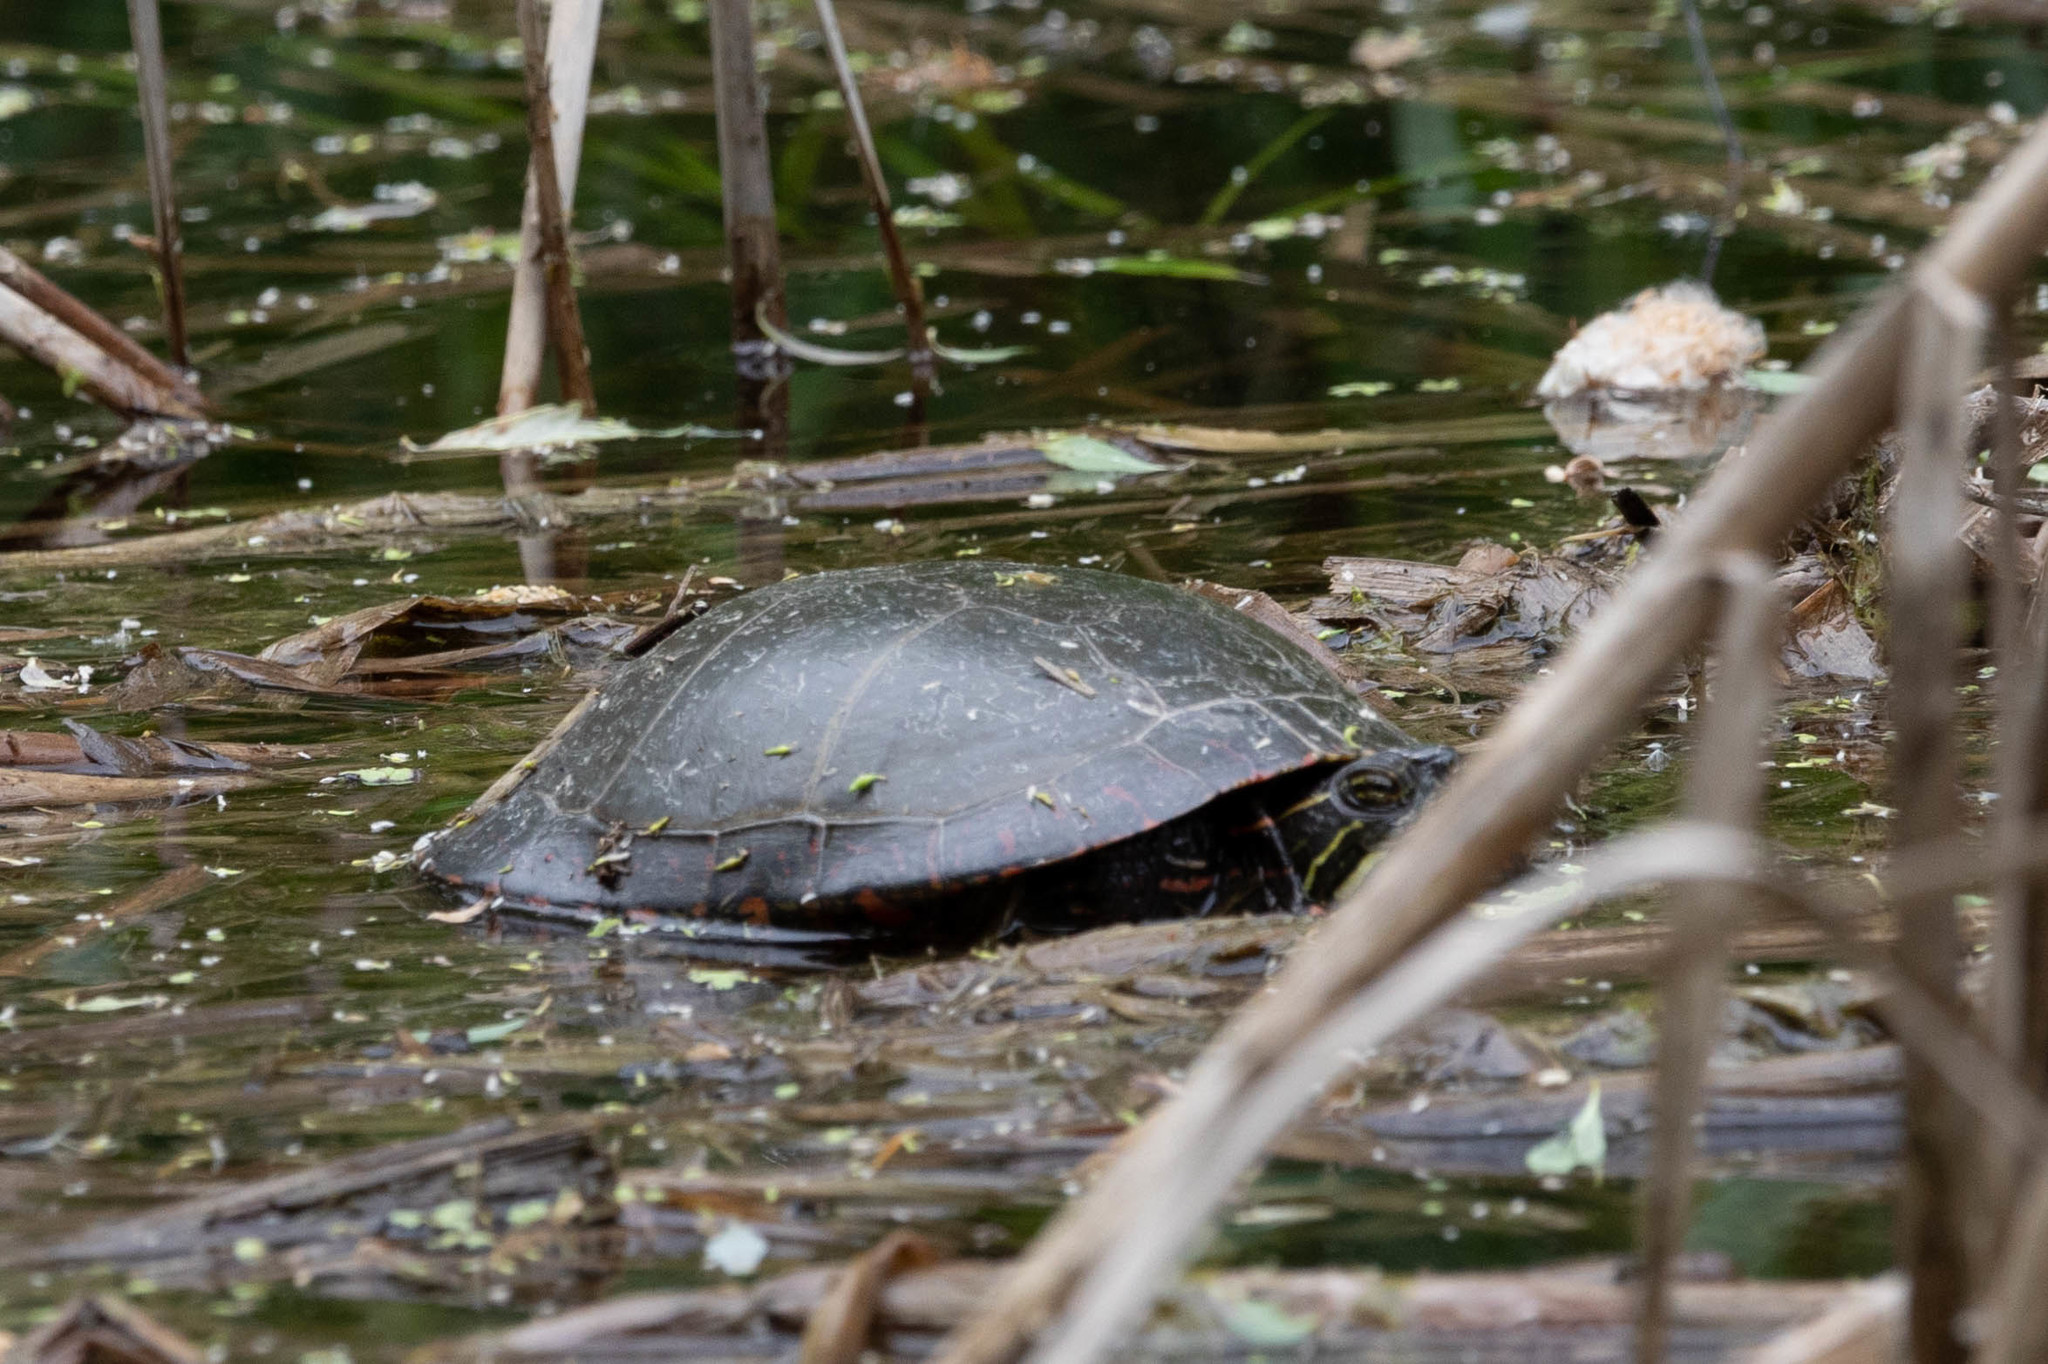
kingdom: Animalia
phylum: Chordata
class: Testudines
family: Emydidae
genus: Chrysemys
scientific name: Chrysemys picta
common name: Painted turtle
